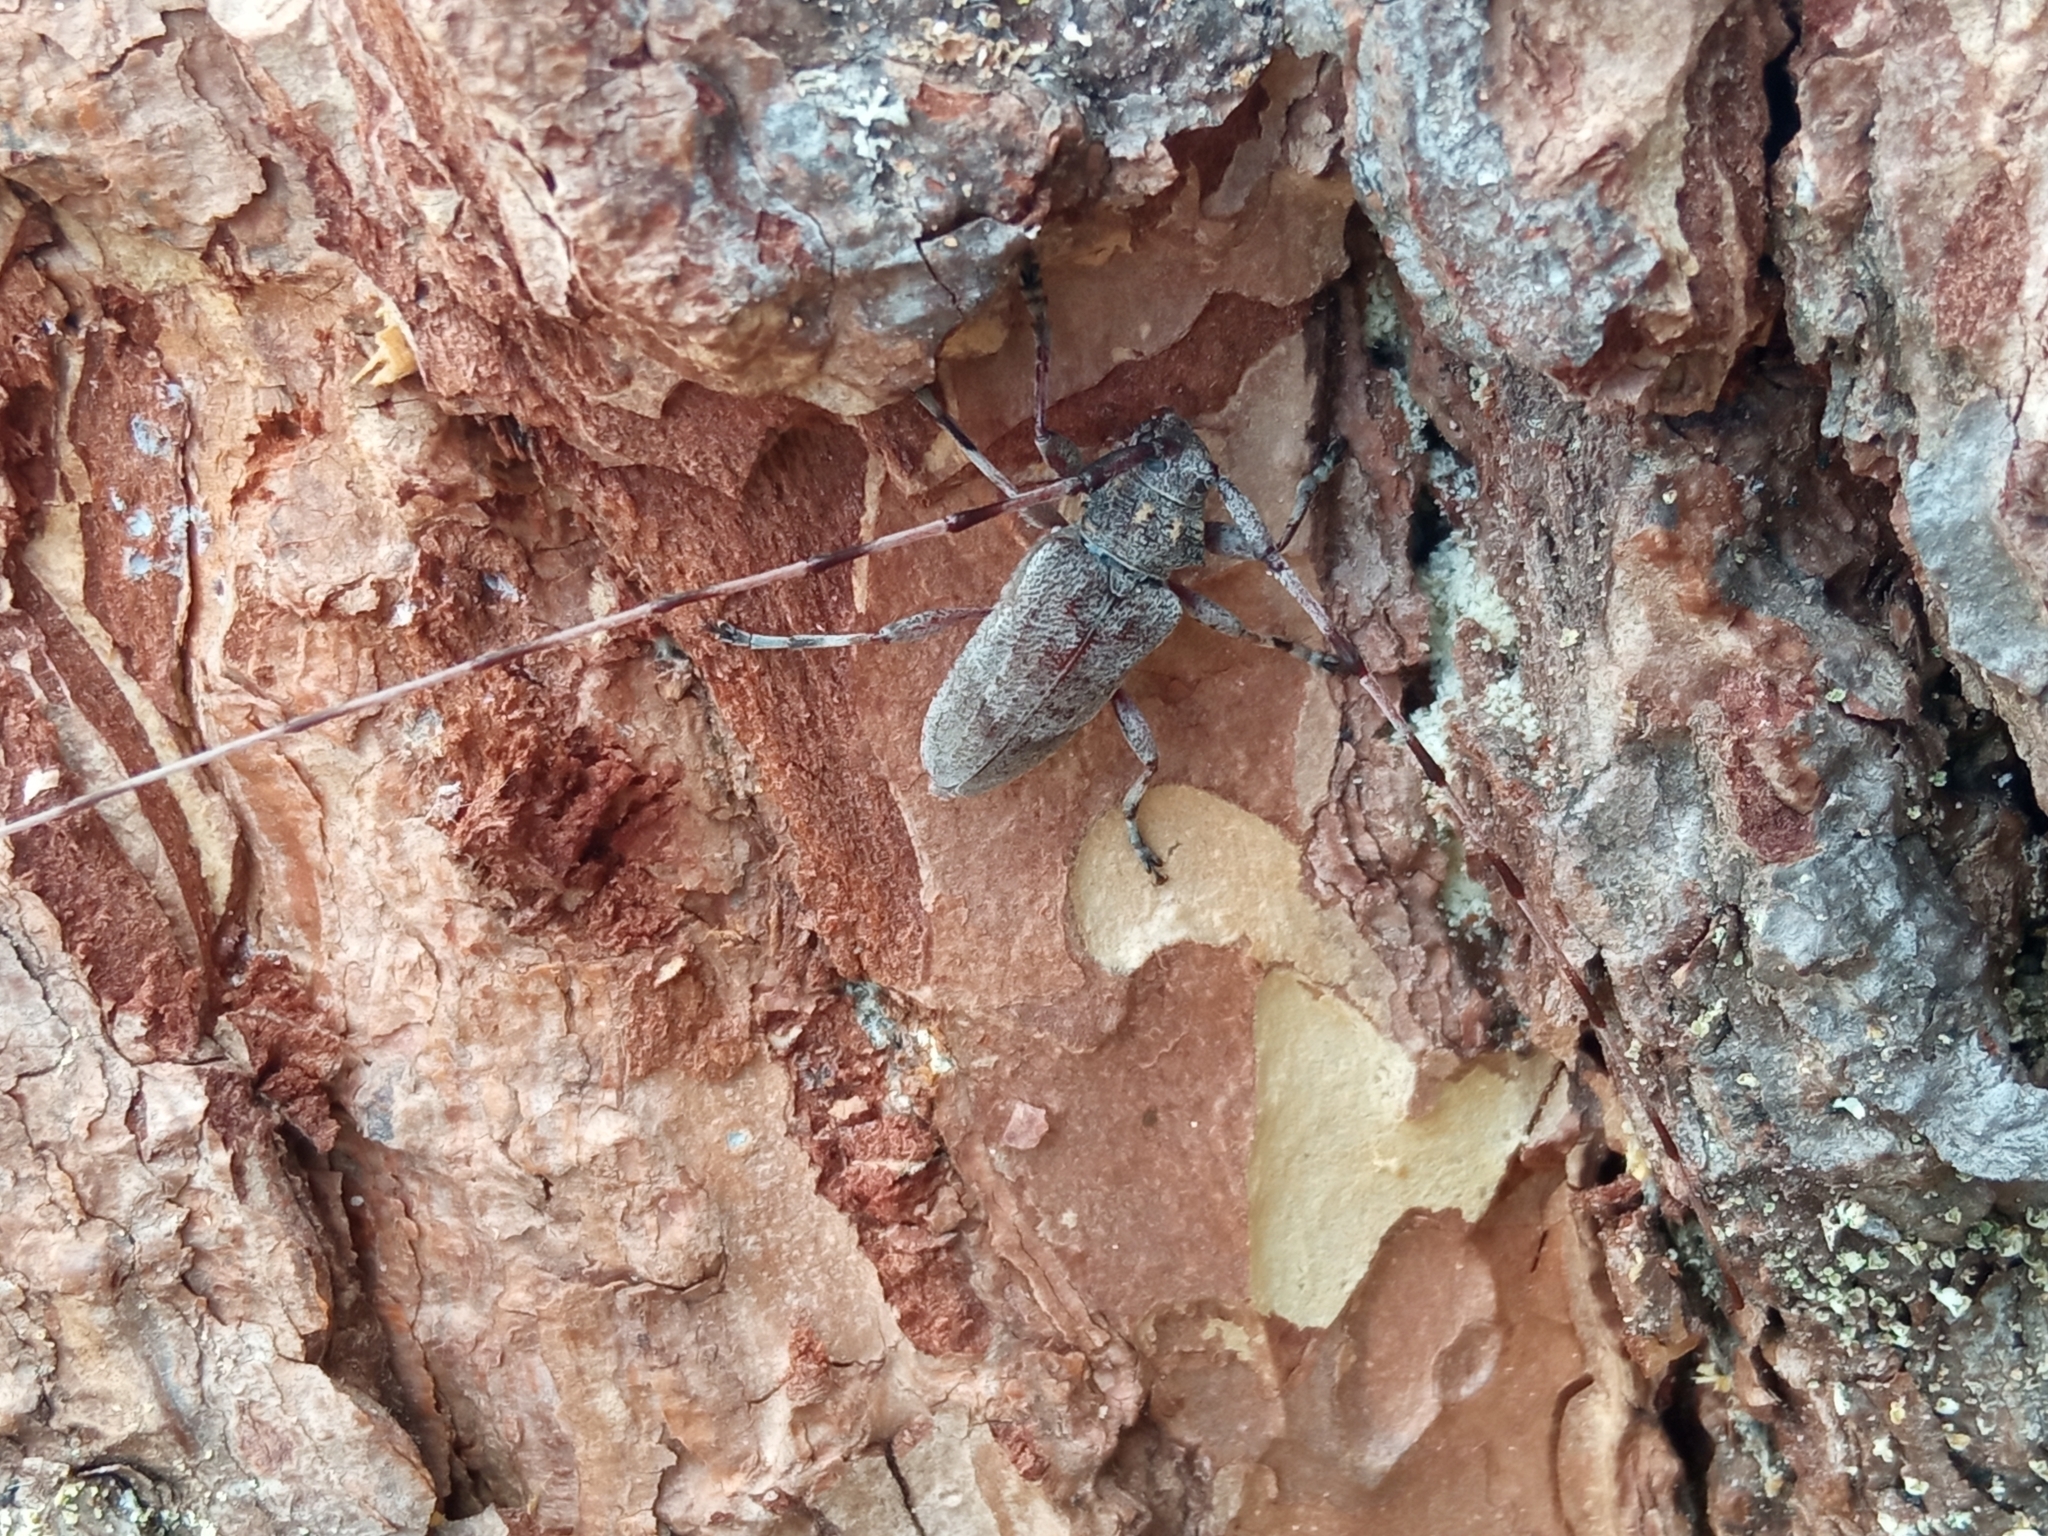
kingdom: Animalia
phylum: Arthropoda
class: Insecta
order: Coleoptera
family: Cerambycidae
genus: Acanthocinus
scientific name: Acanthocinus aedilis
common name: Timberman beetle
